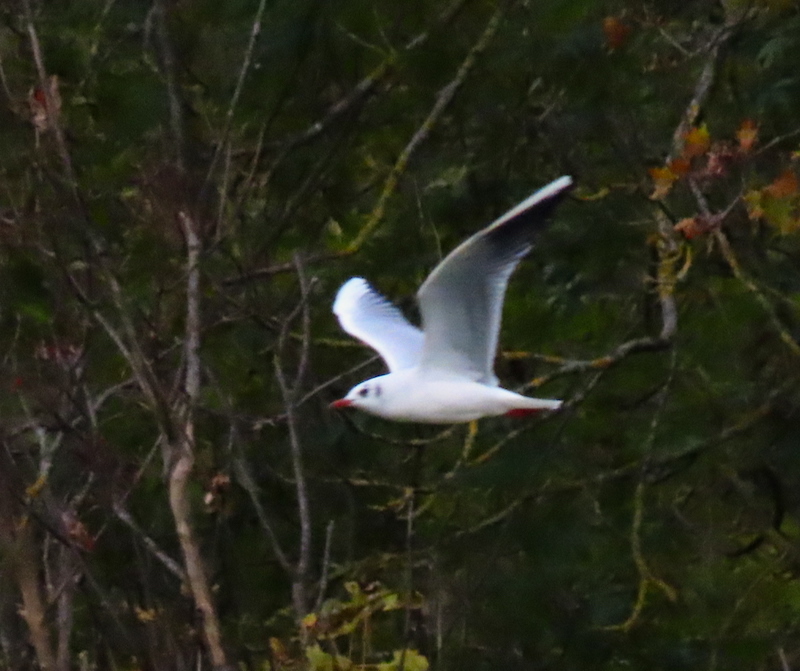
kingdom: Animalia
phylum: Chordata
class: Aves
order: Charadriiformes
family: Laridae
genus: Chroicocephalus
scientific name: Chroicocephalus ridibundus
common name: Black-headed gull
